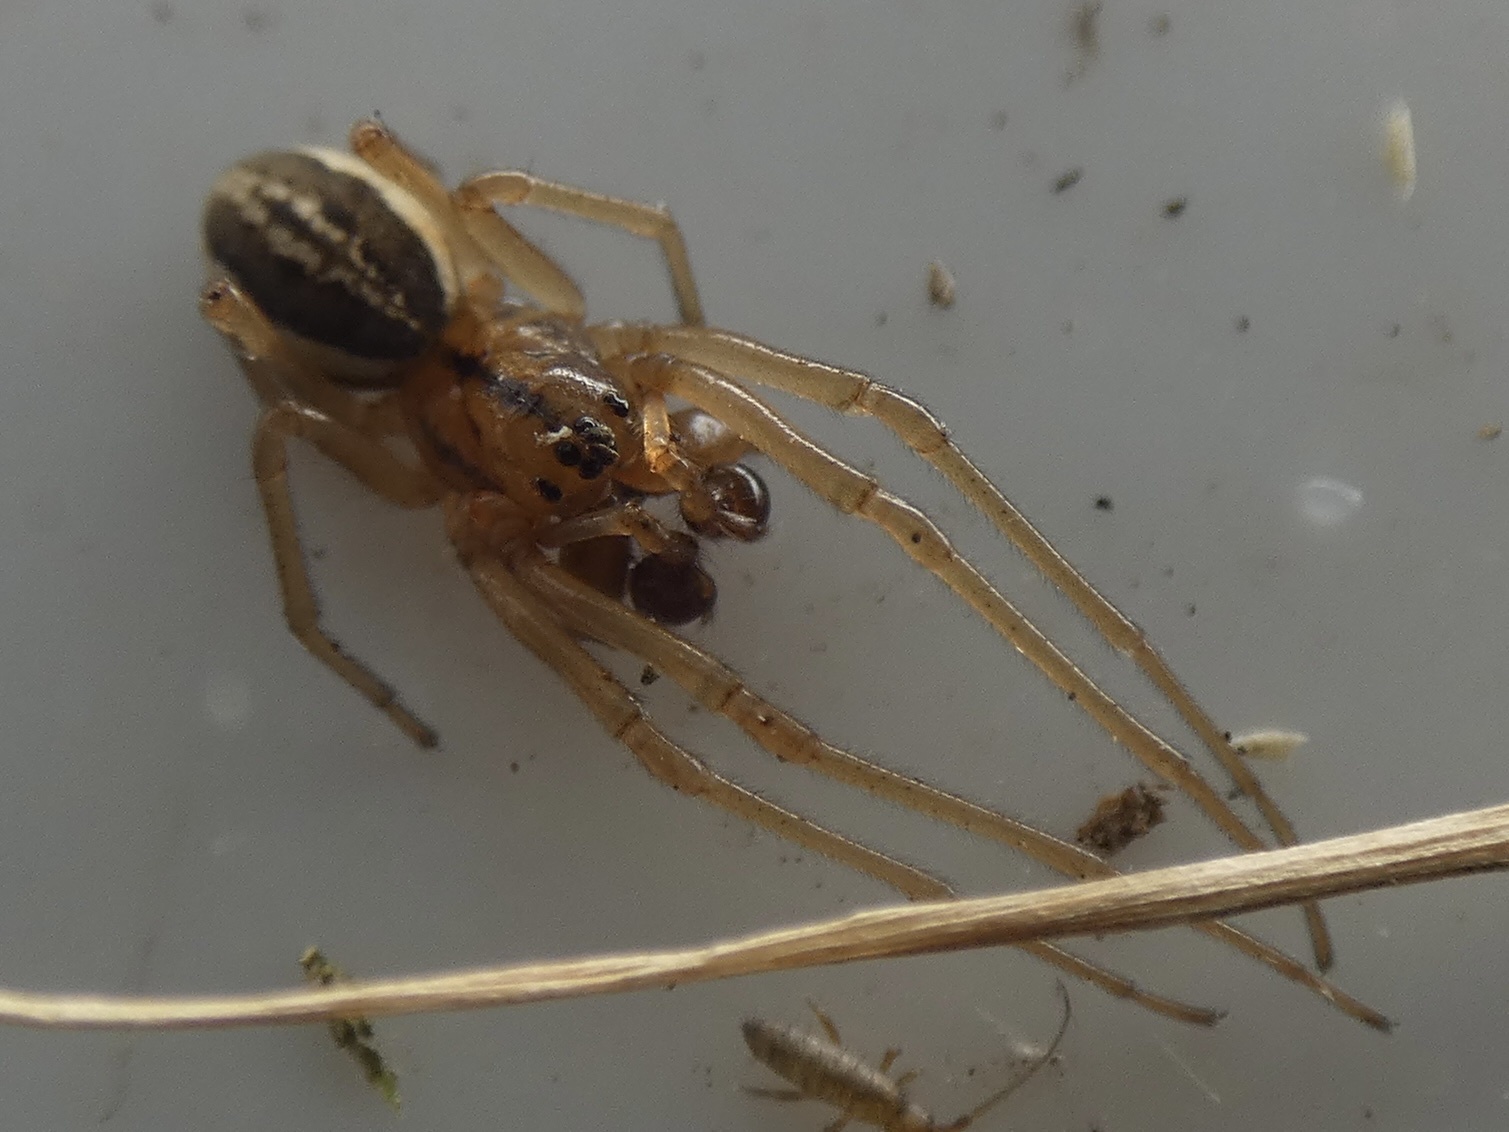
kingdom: Animalia
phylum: Arthropoda
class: Arachnida
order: Araneae
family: Tetragnathidae
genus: Pachygnatha
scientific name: Pachygnatha clercki
